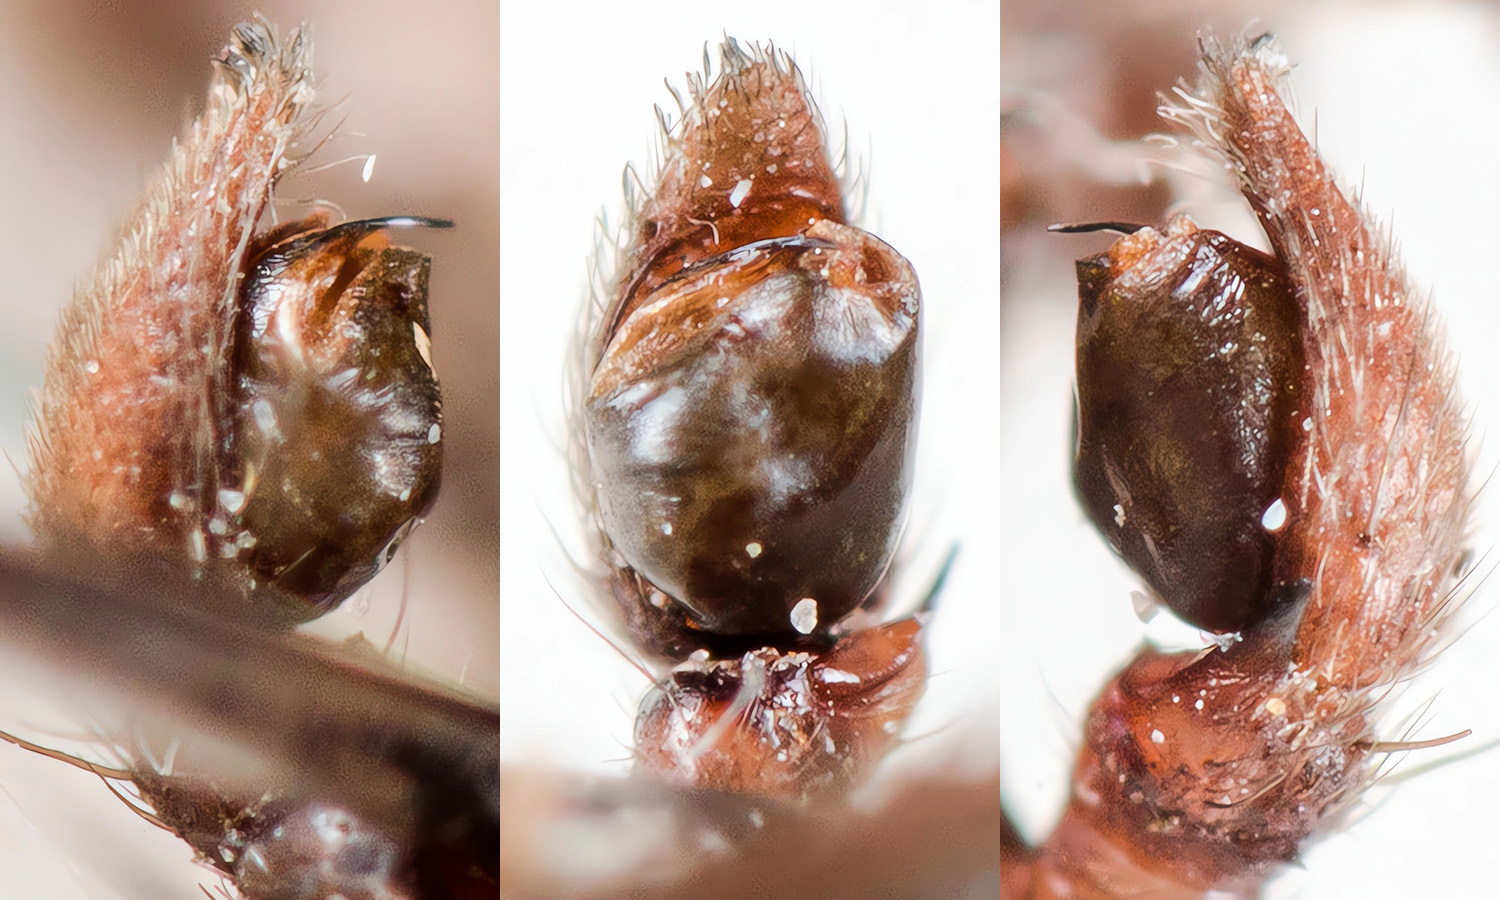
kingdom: Animalia
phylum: Arthropoda
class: Arachnida
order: Araneae
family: Philodromidae
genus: Thanatus
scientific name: Thanatus formicinus
